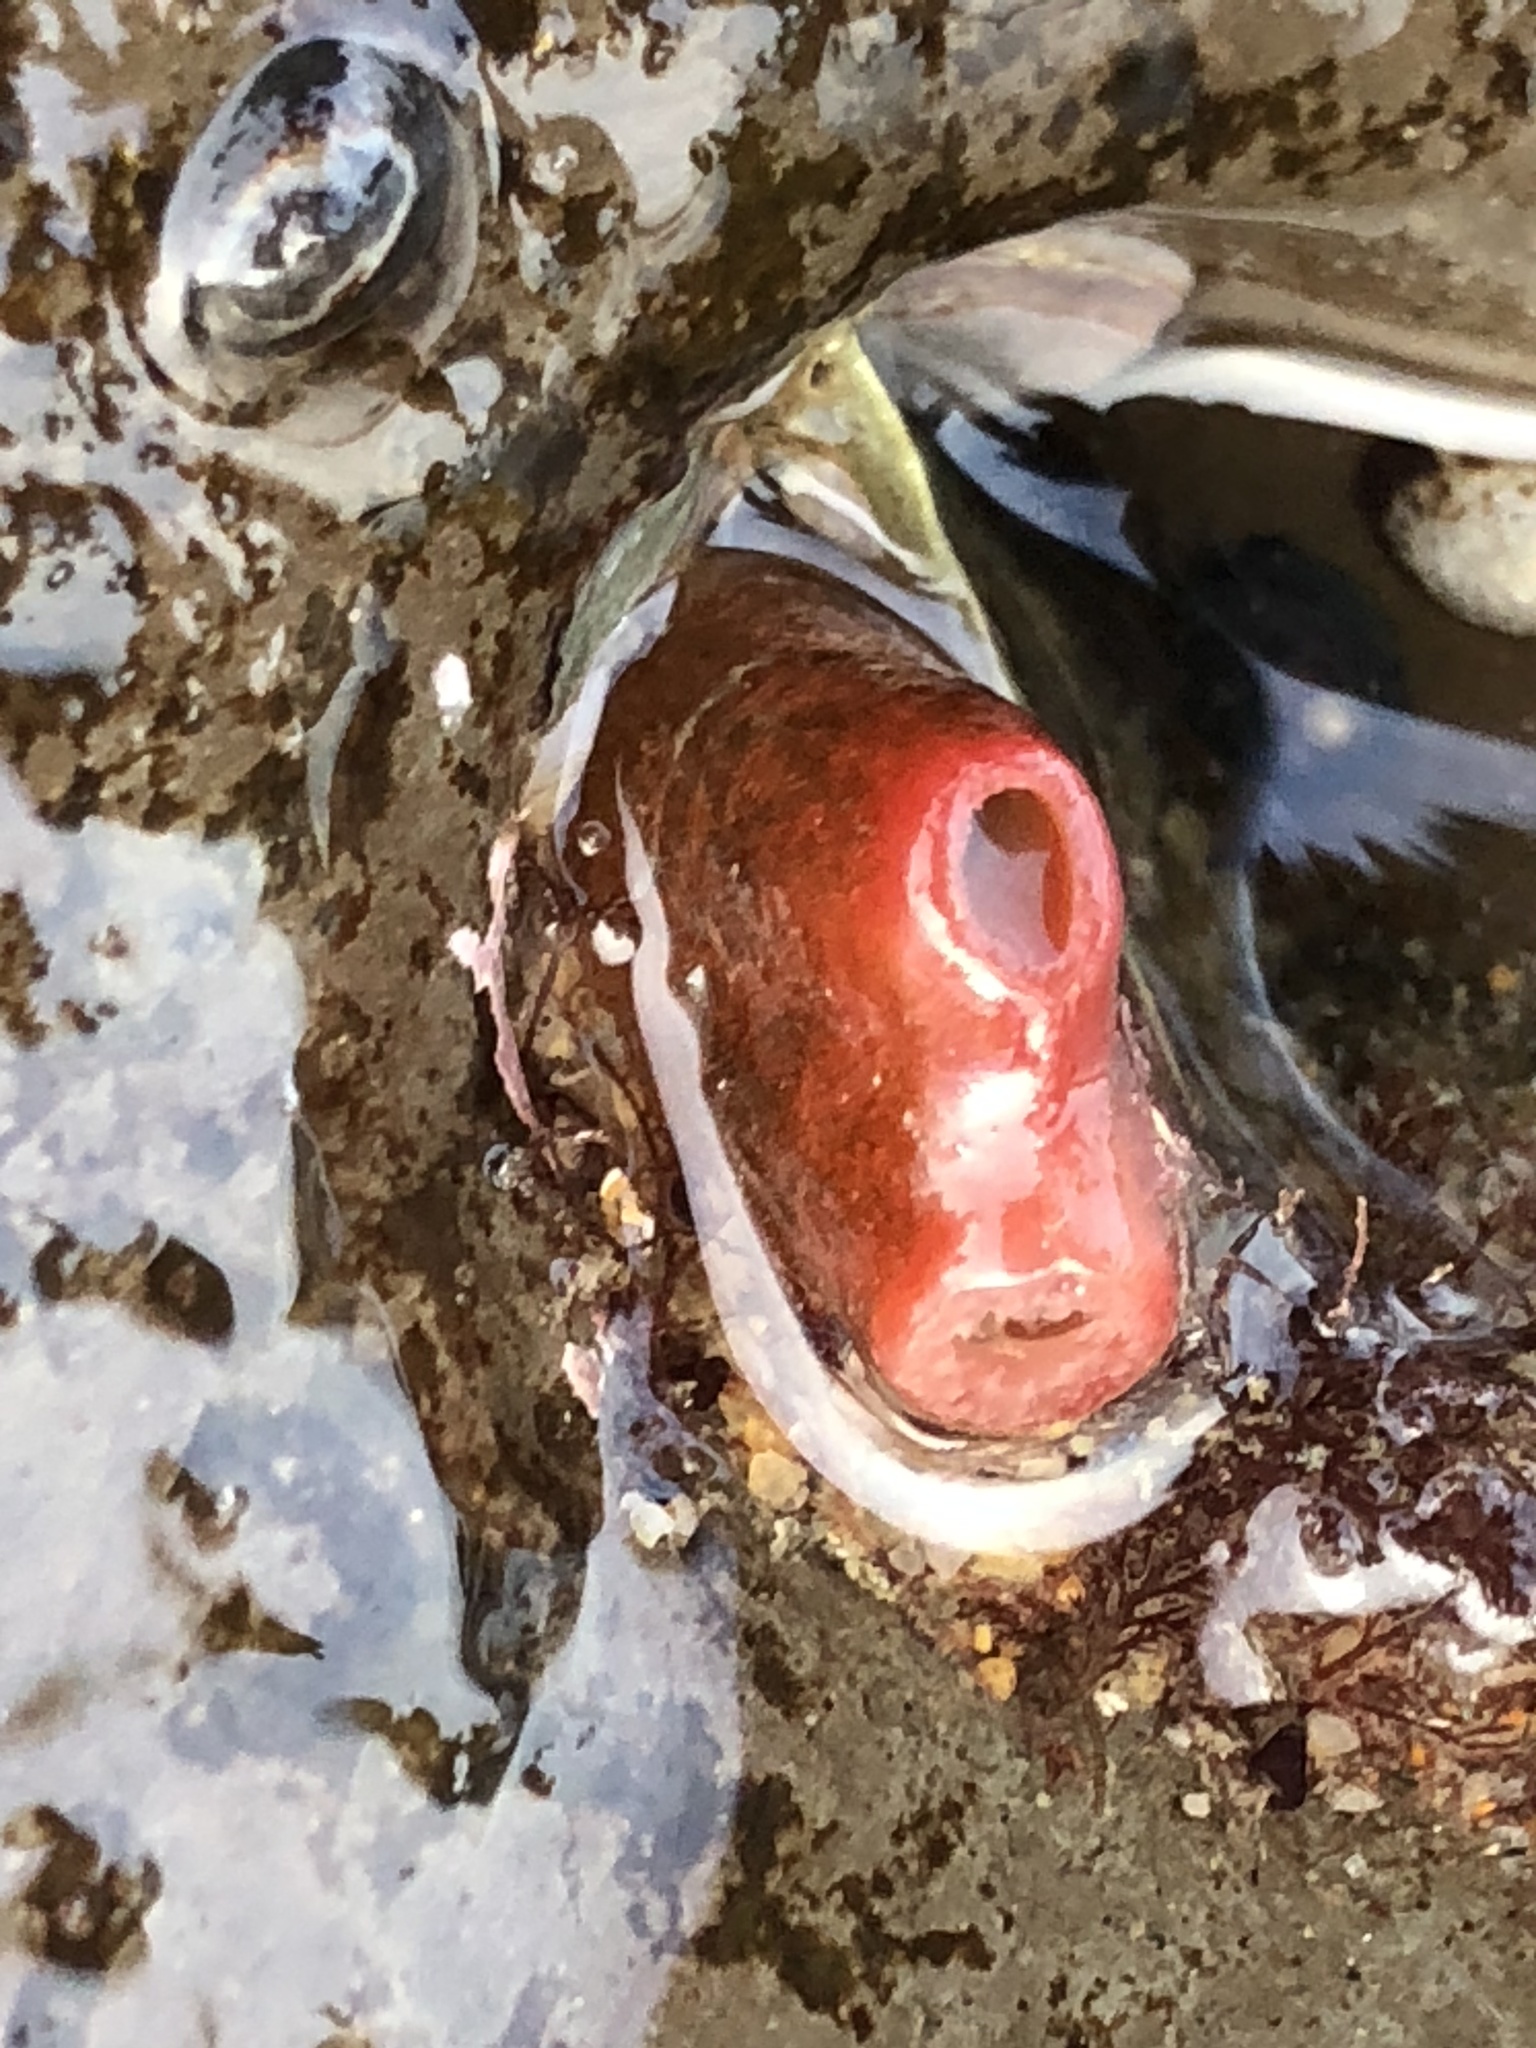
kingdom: Animalia
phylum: Mollusca
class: Bivalvia
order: Adapedonta
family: Hiatellidae
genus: Hiatella
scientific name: Hiatella arctica
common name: Arctic hiatella
